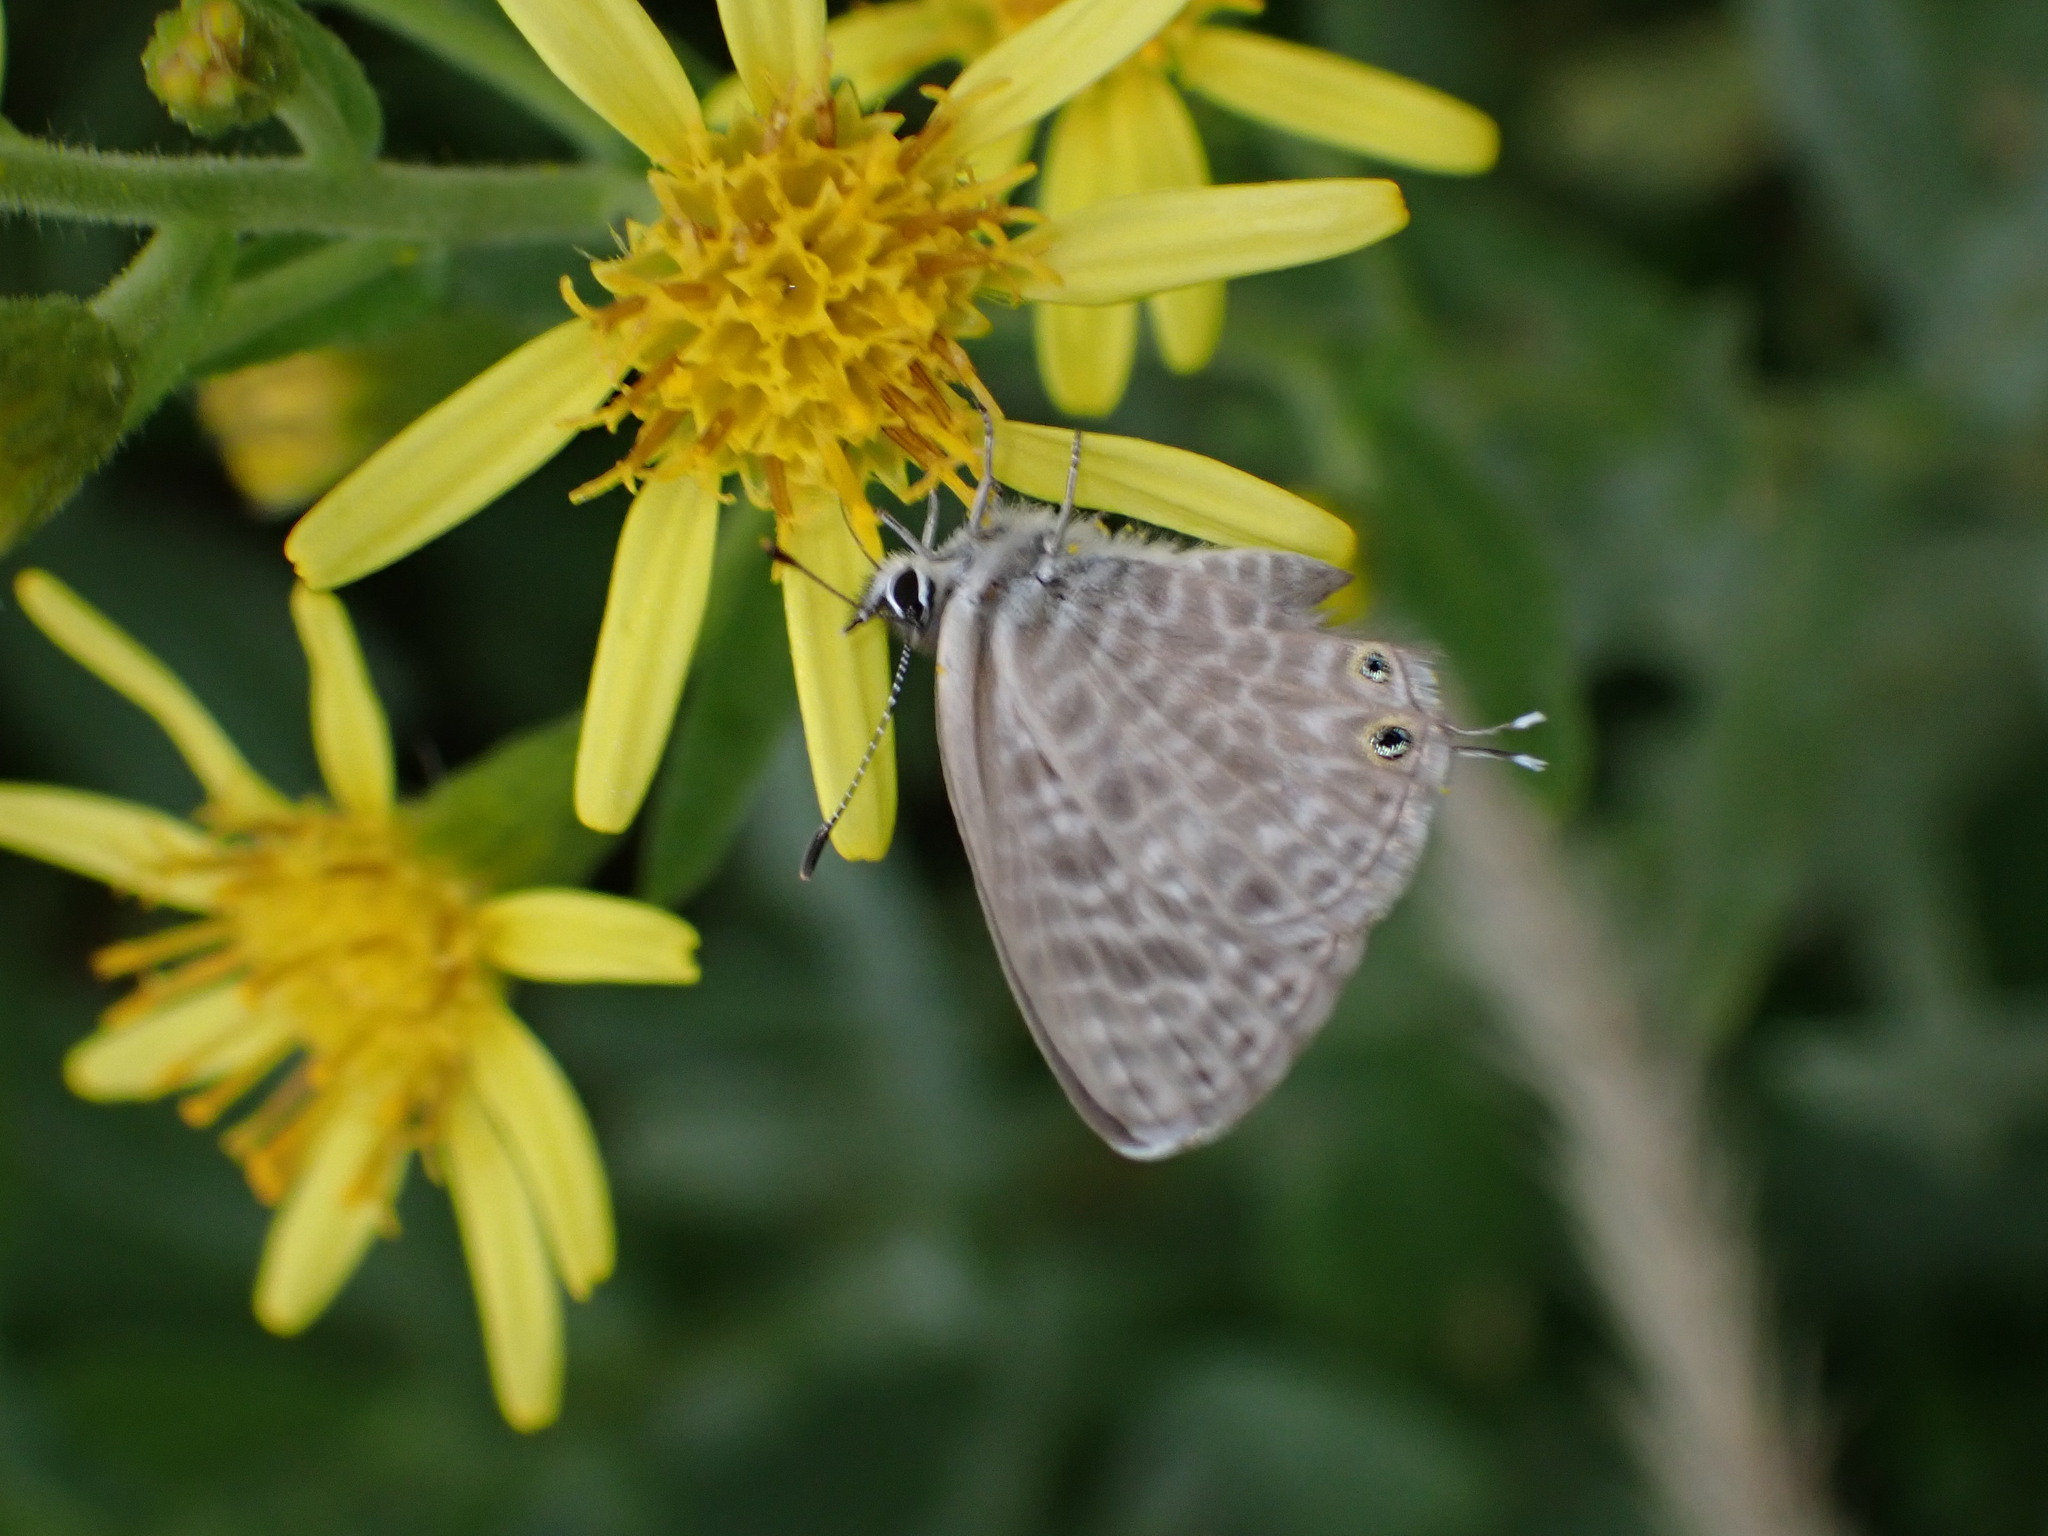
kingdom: Animalia
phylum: Arthropoda
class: Insecta
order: Lepidoptera
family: Lycaenidae
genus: Leptotes
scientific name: Leptotes pirithous
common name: Lang's short-tailed blue
